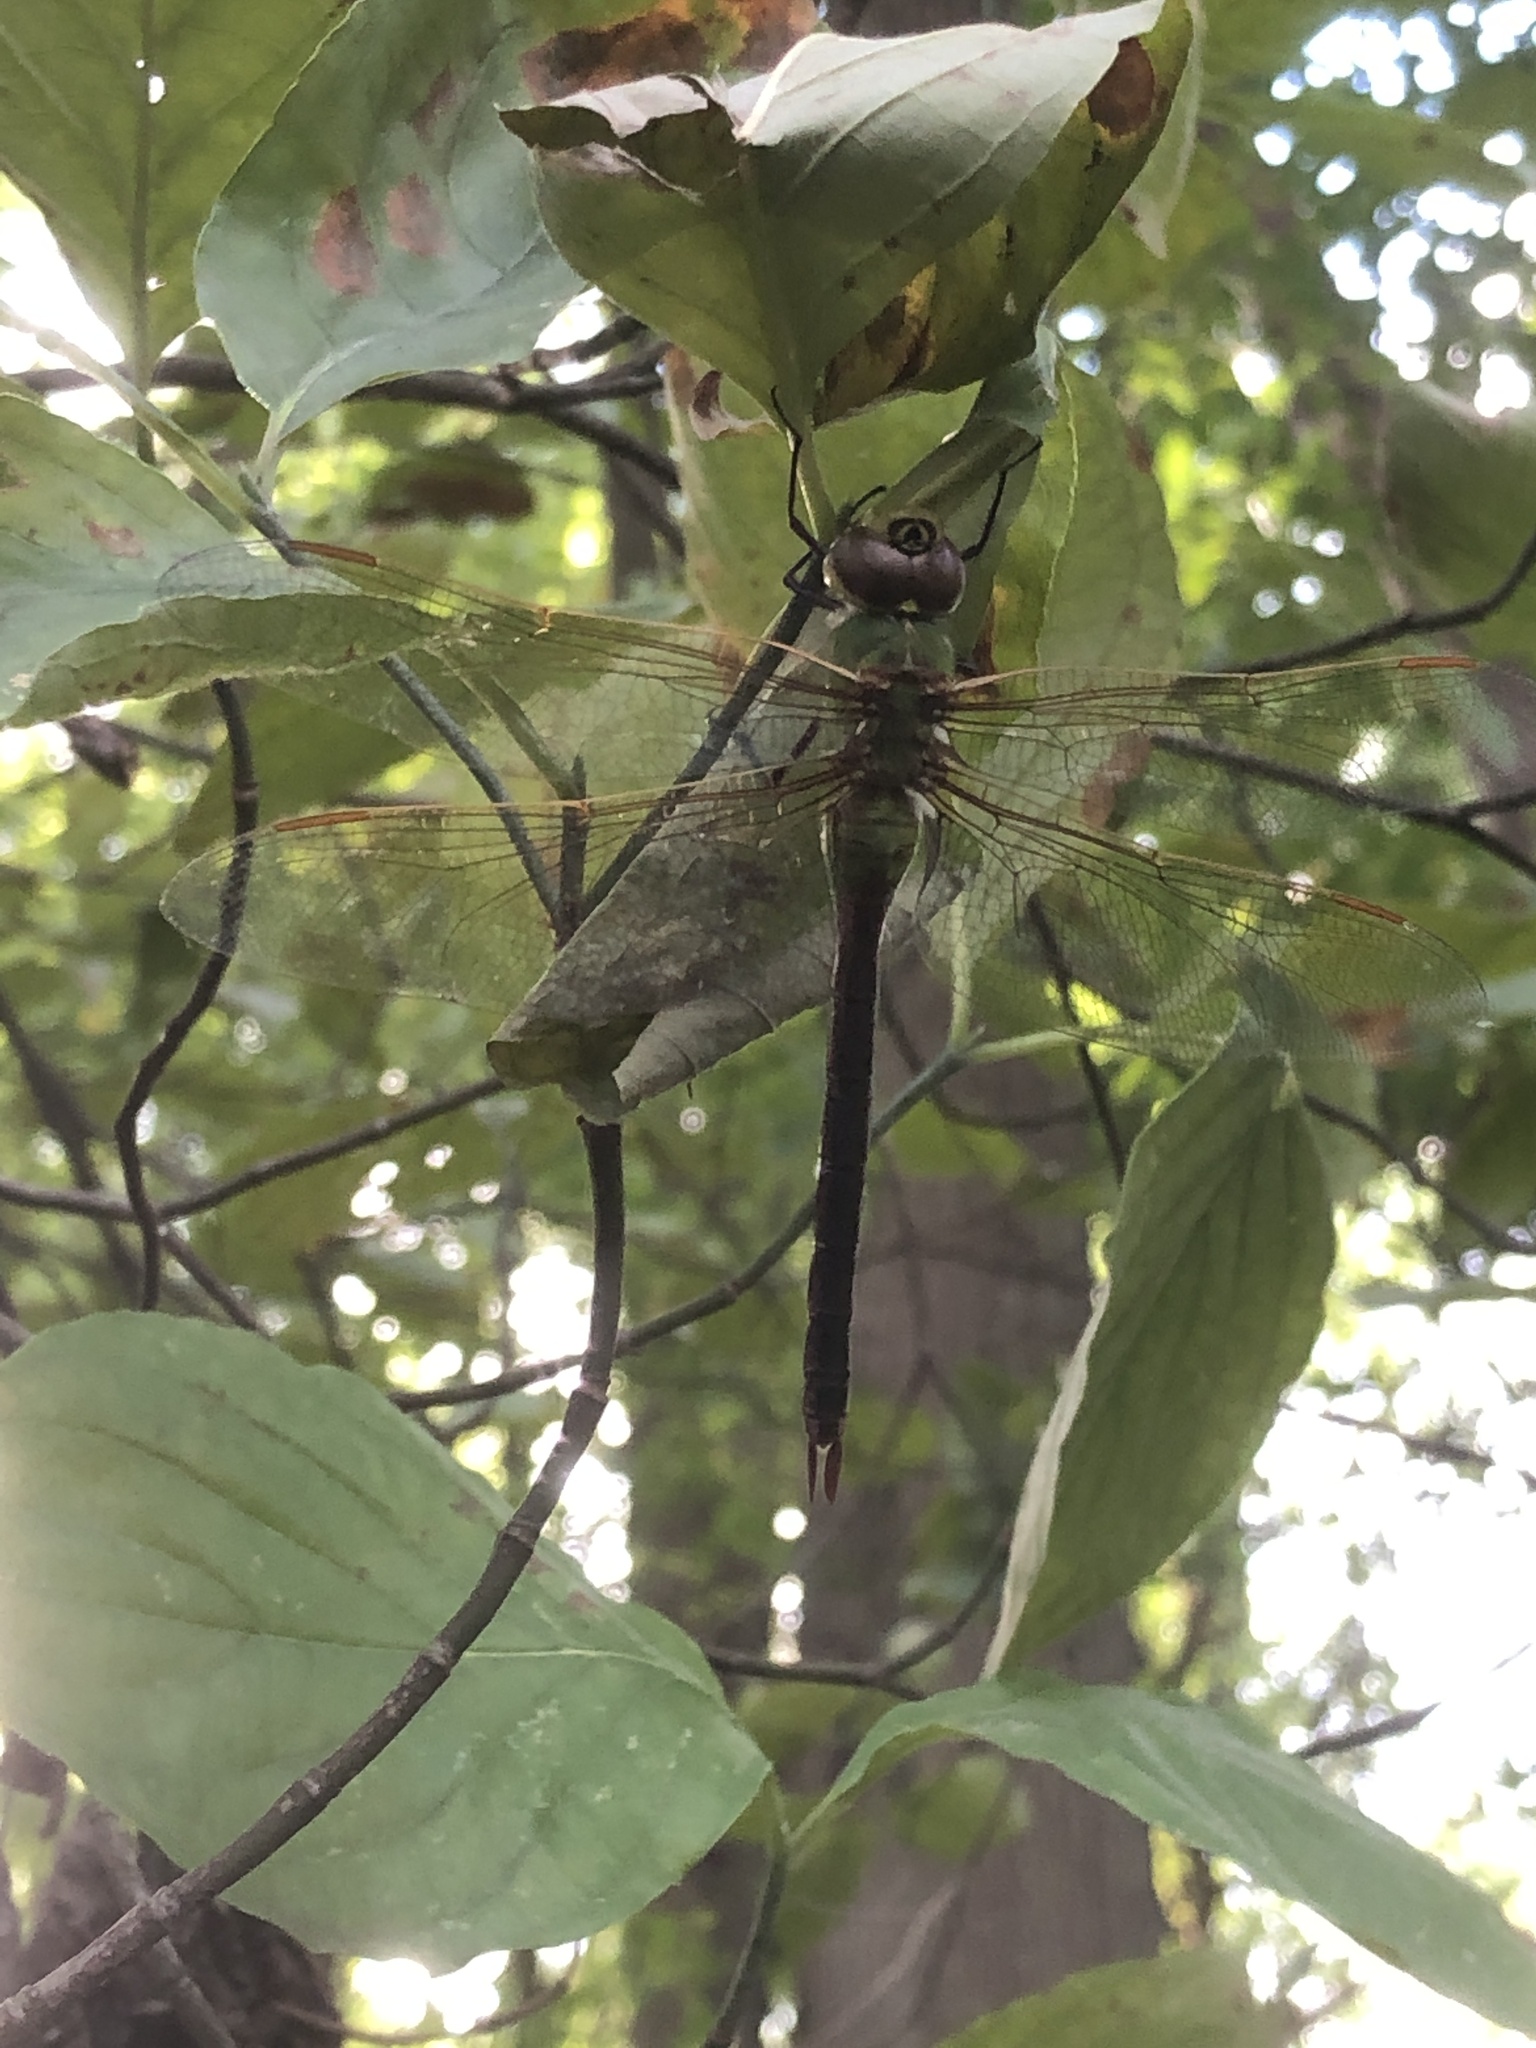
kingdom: Animalia
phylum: Arthropoda
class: Insecta
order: Odonata
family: Aeshnidae
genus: Anax
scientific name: Anax junius
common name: Common green darner
